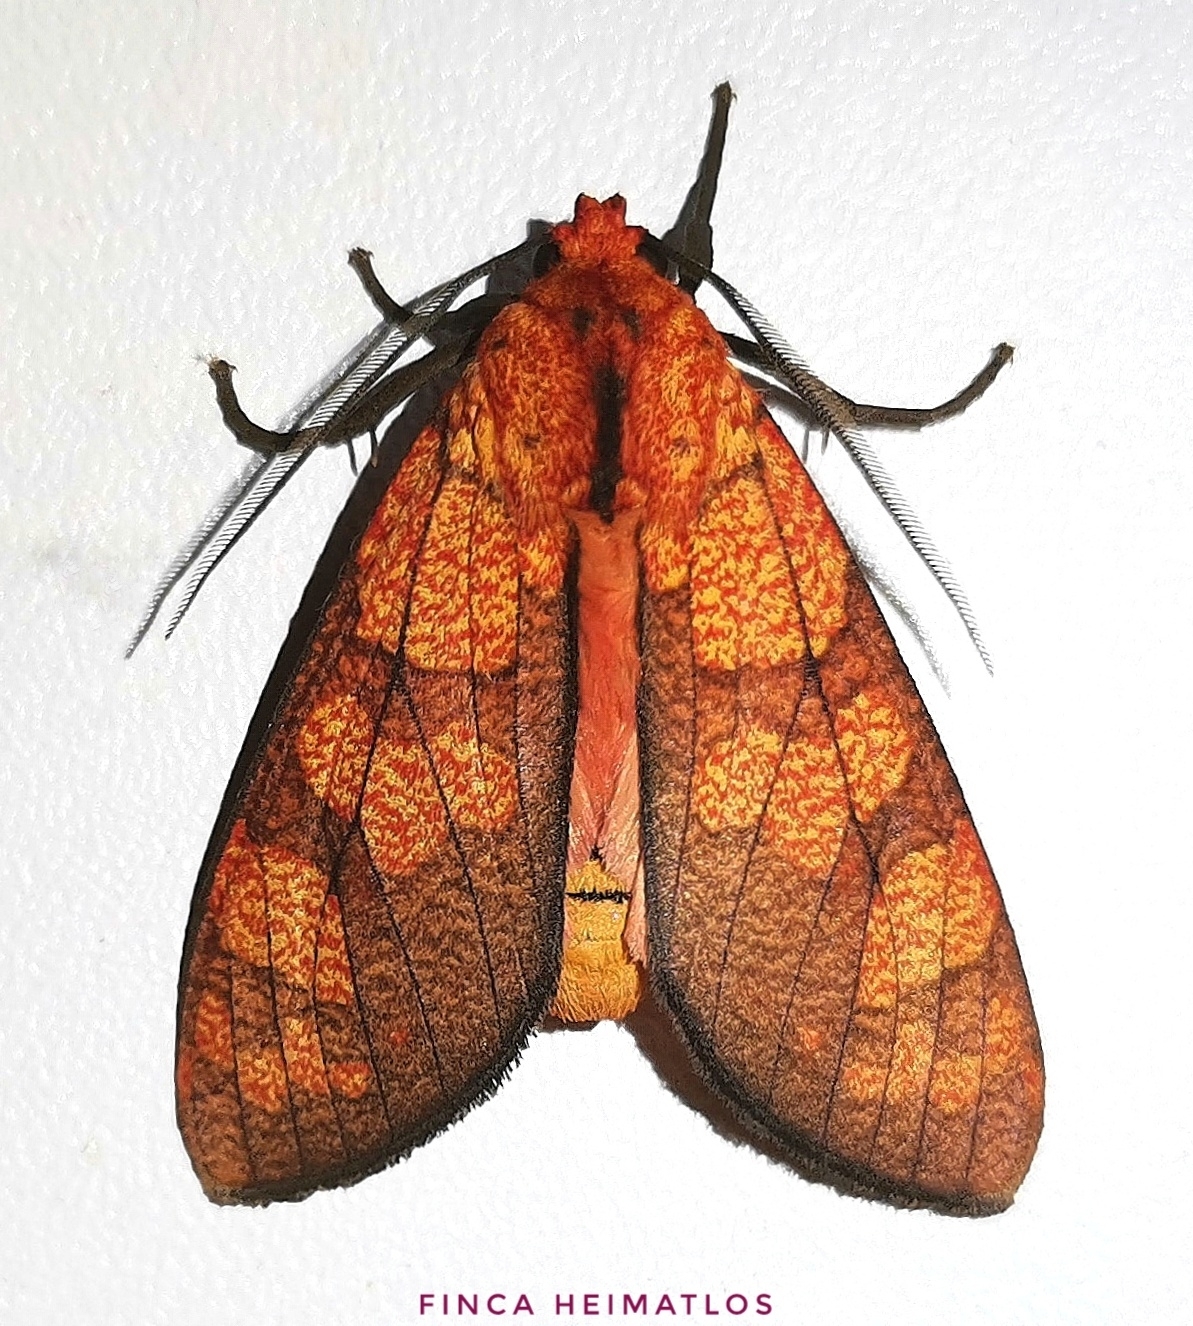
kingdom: Animalia
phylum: Arthropoda
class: Insecta
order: Lepidoptera
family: Erebidae
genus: Elysius
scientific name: Elysius conspersus
